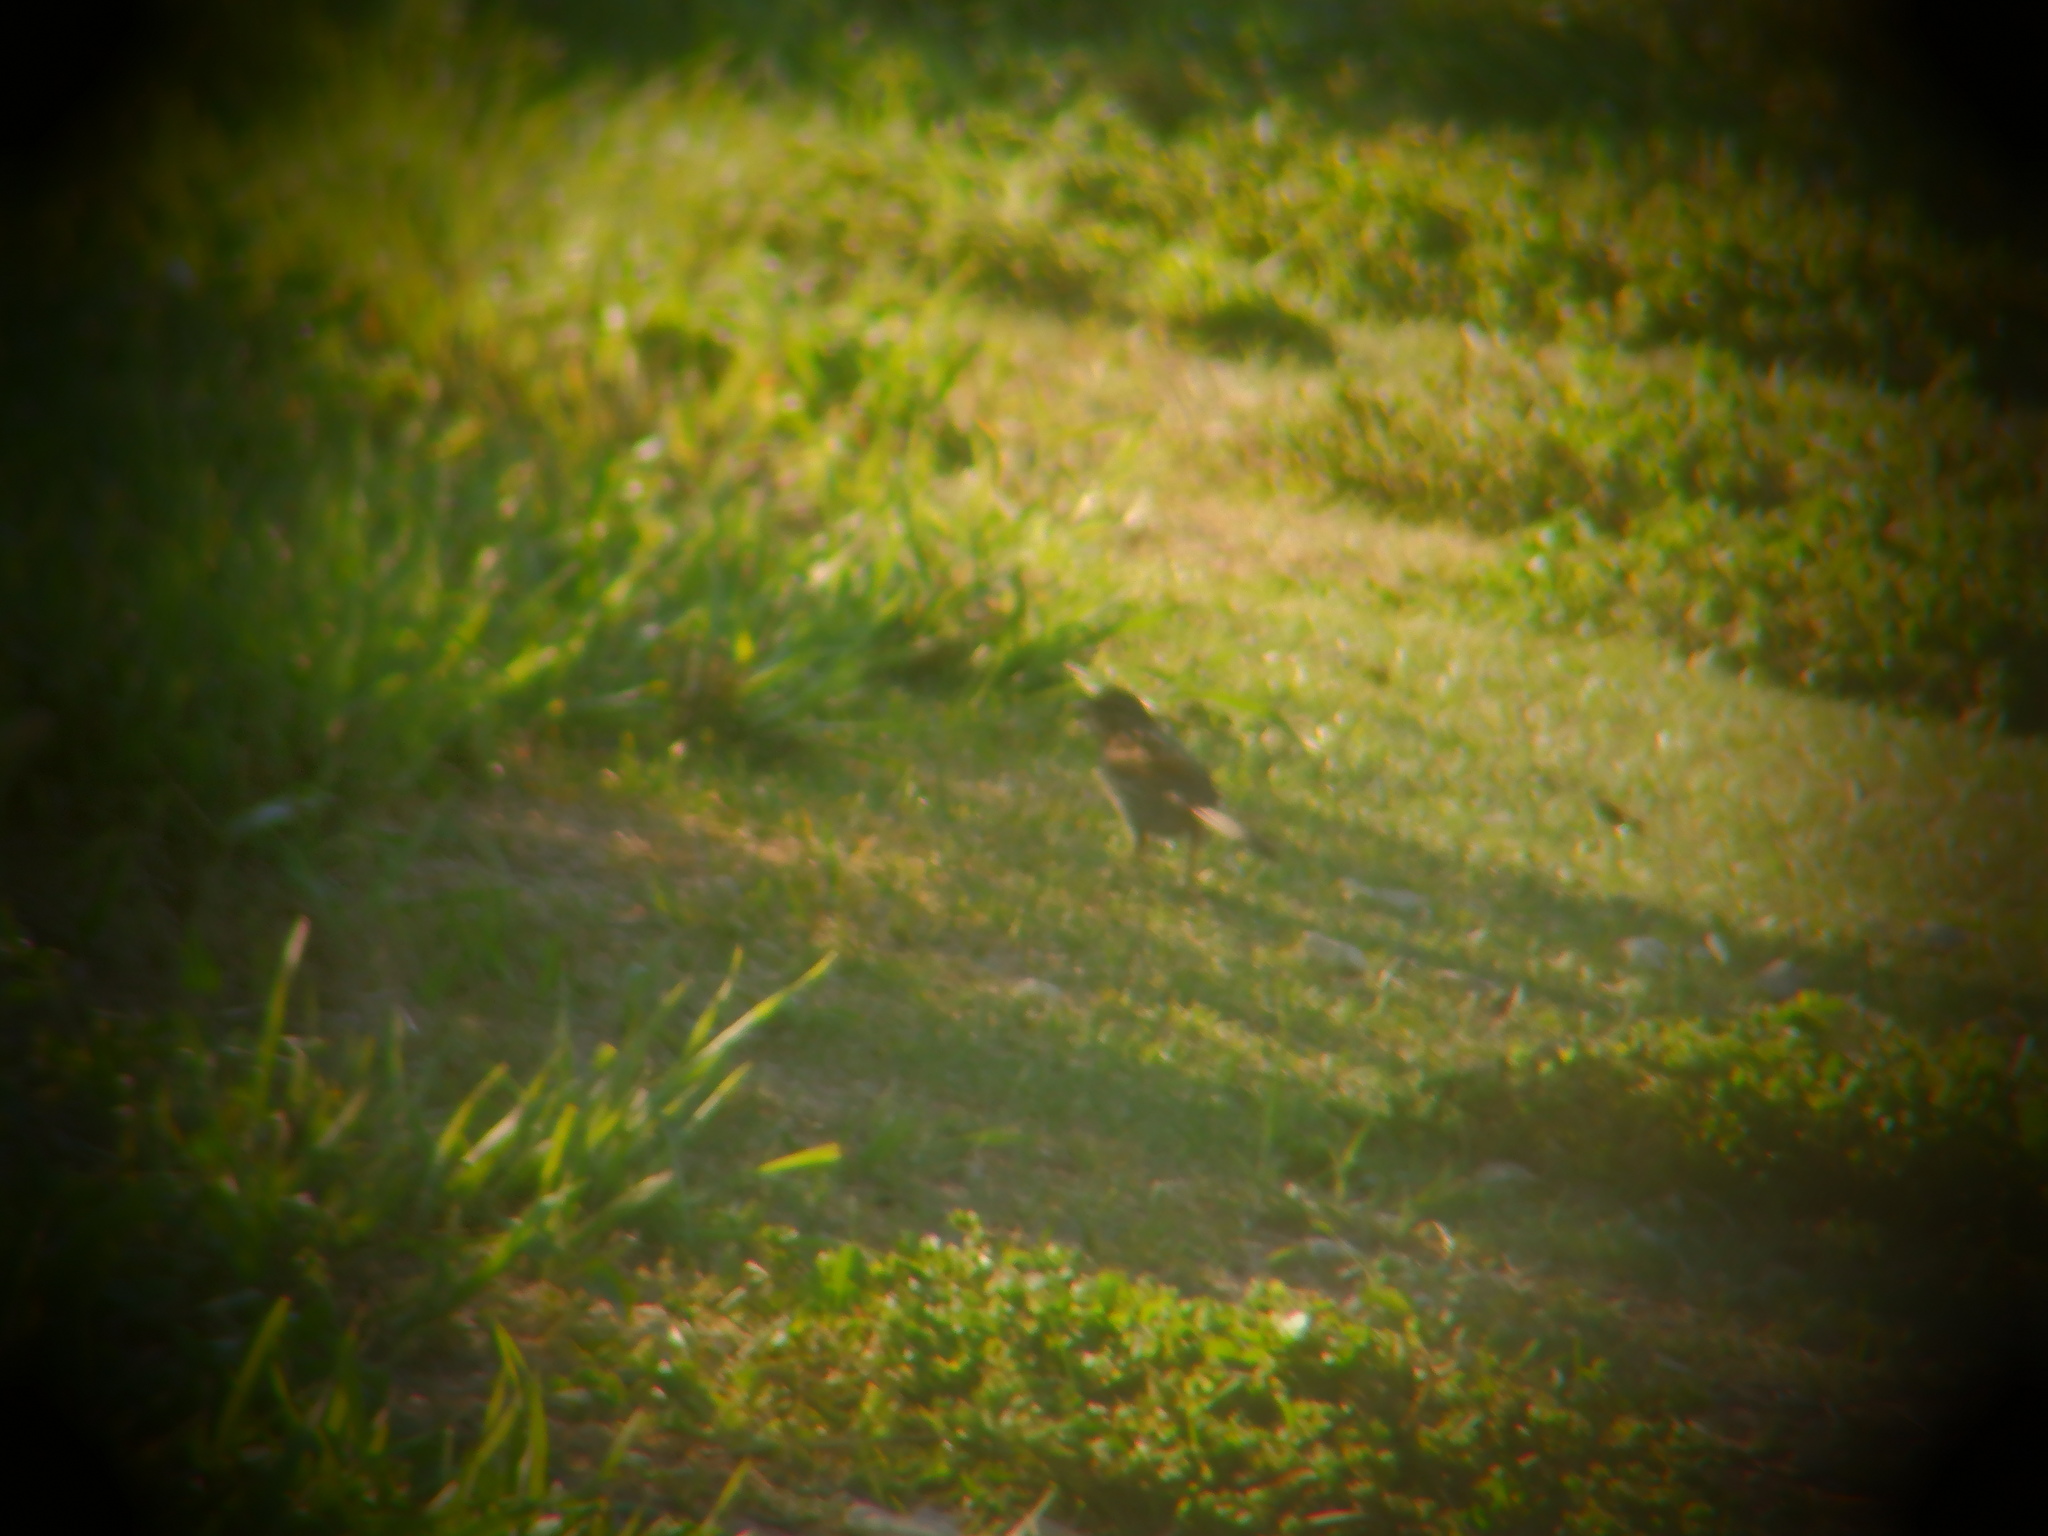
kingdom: Animalia
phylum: Chordata
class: Aves
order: Passeriformes
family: Passerellidae
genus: Melospiza
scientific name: Melospiza melodia
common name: Song sparrow
